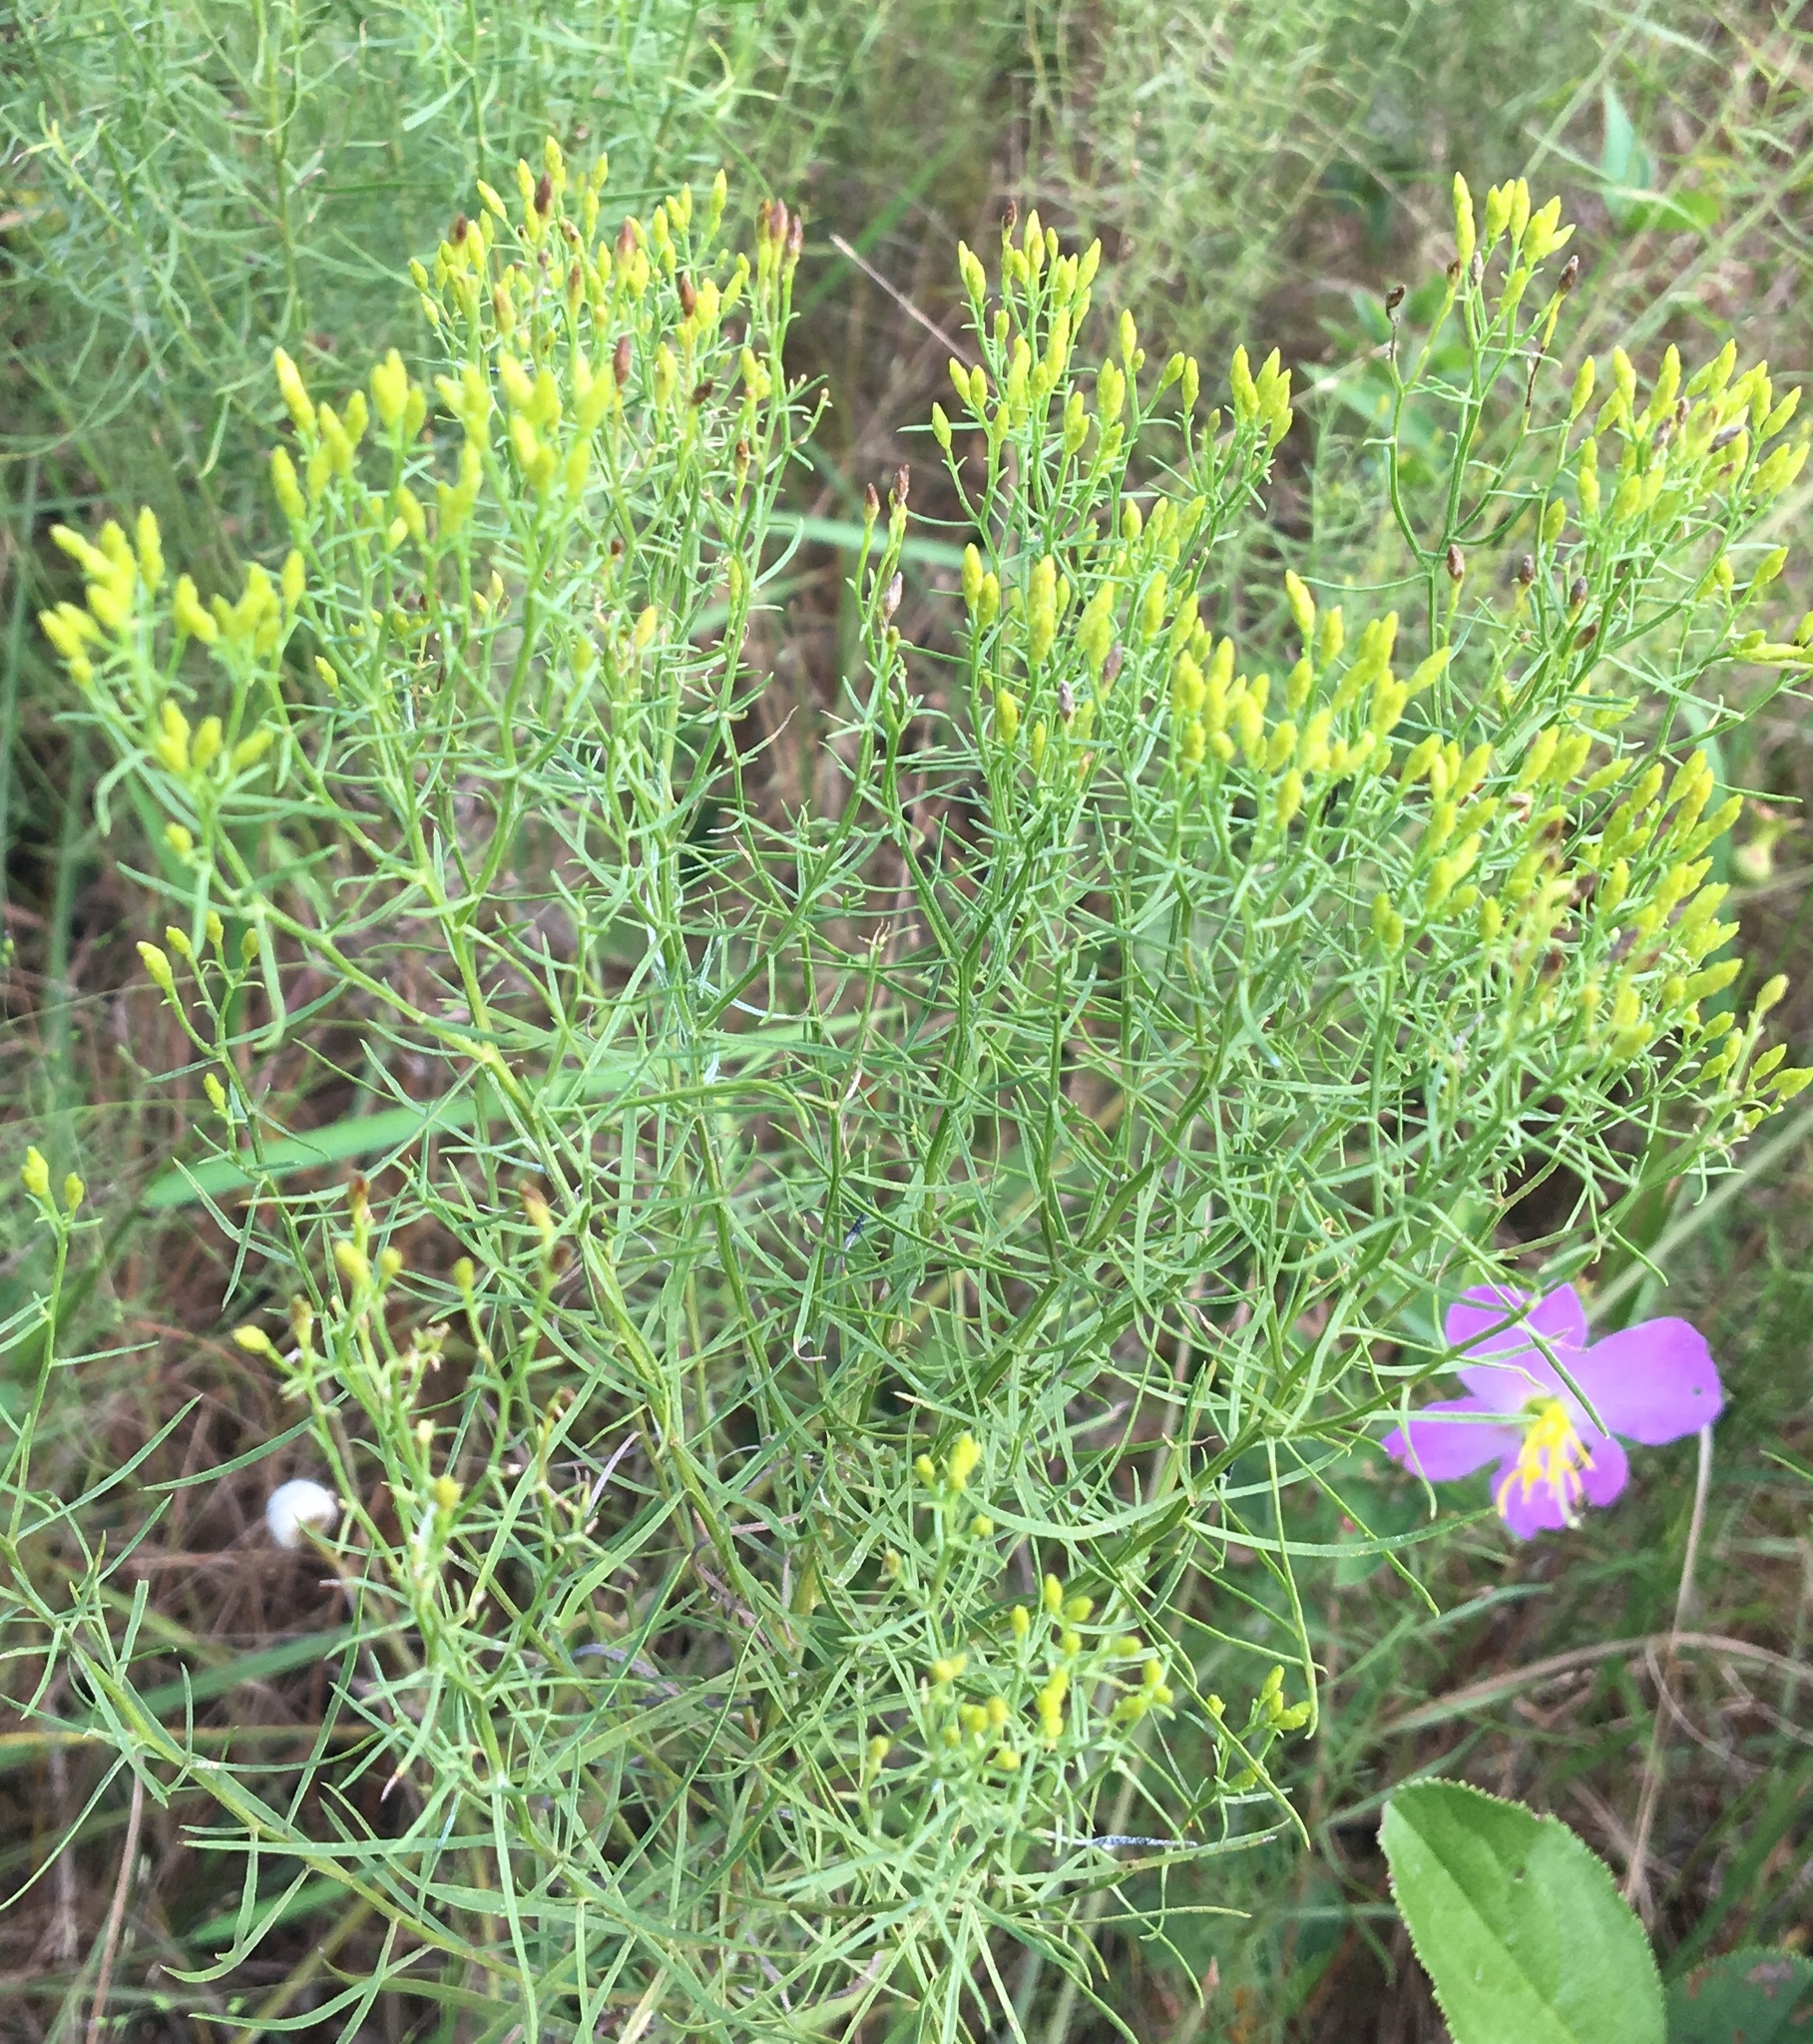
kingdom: Plantae
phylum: Tracheophyta
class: Magnoliopsida
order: Asterales
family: Asteraceae
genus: Euthamia
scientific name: Euthamia caroliniana
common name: Coastal plain goldentop
